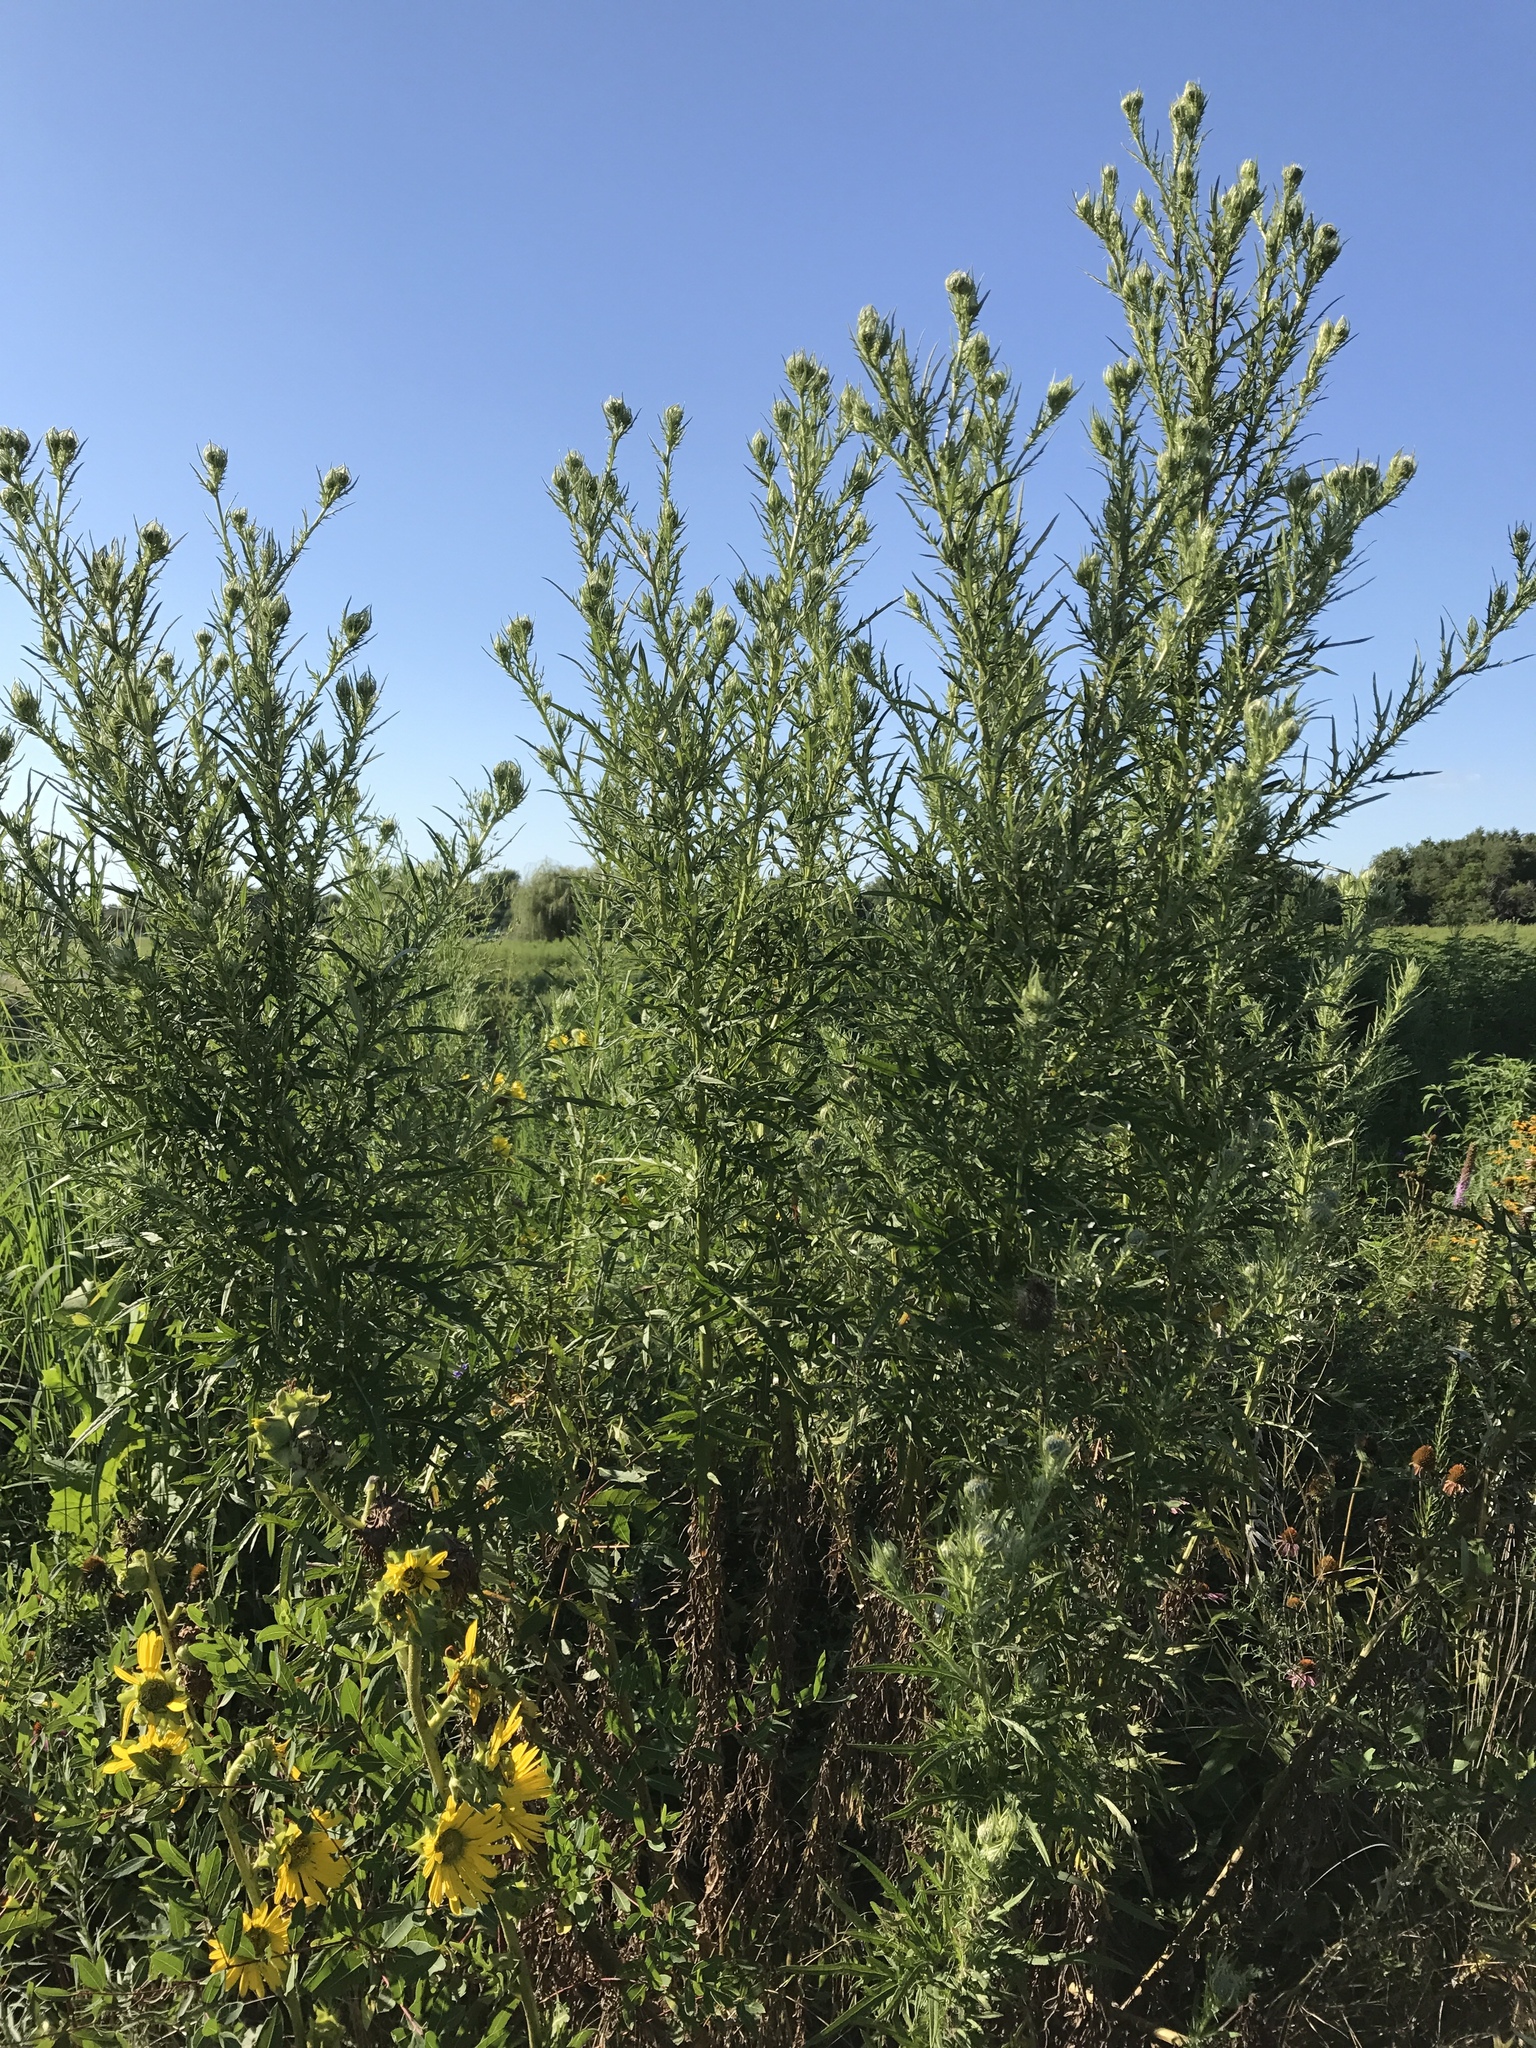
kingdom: Plantae
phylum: Tracheophyta
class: Magnoliopsida
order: Asterales
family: Asteraceae
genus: Cirsium
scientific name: Cirsium discolor
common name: Field thistle
